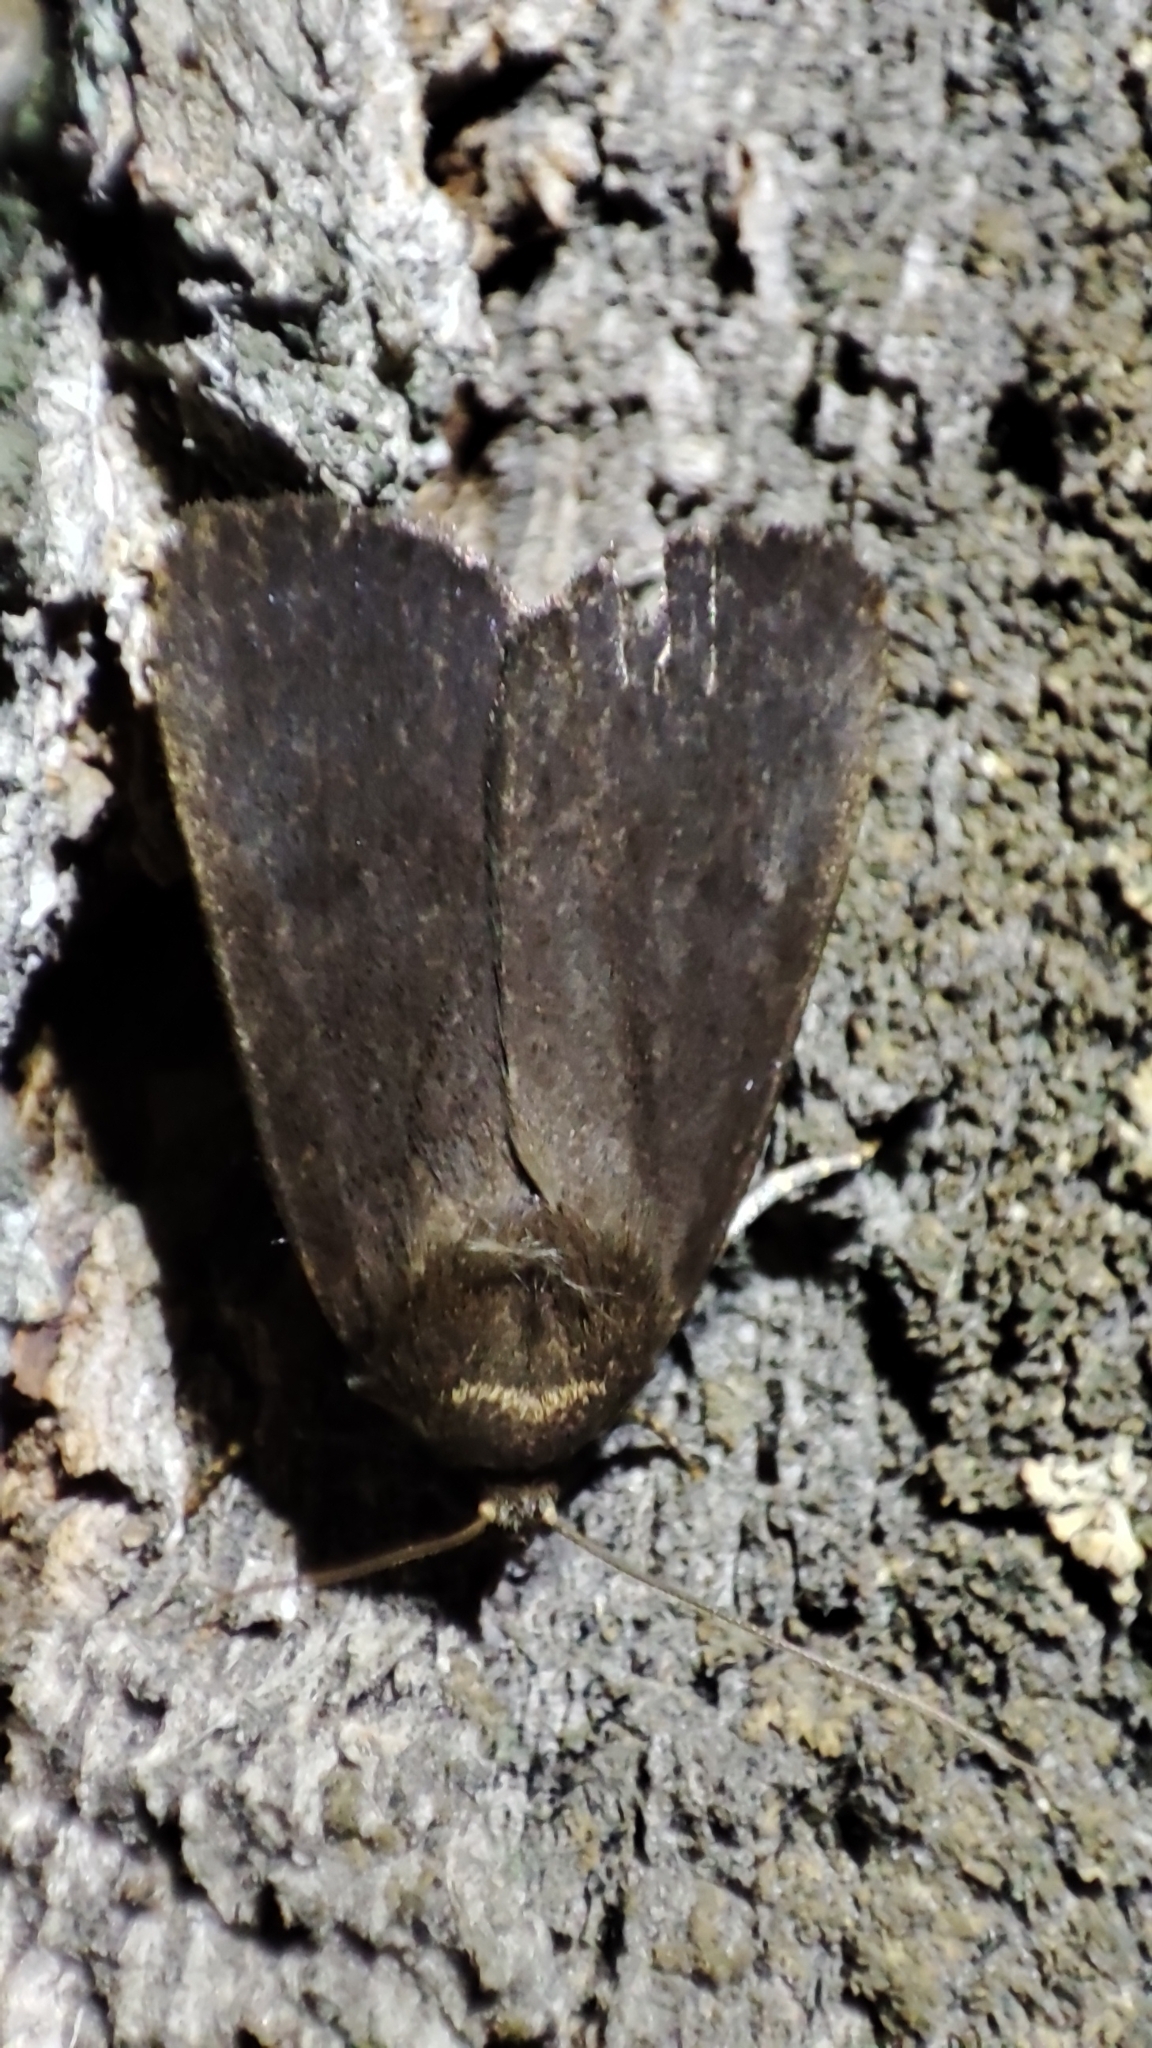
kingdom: Animalia
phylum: Arthropoda
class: Insecta
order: Lepidoptera
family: Noctuidae
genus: Amphipyra
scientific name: Amphipyra livida
